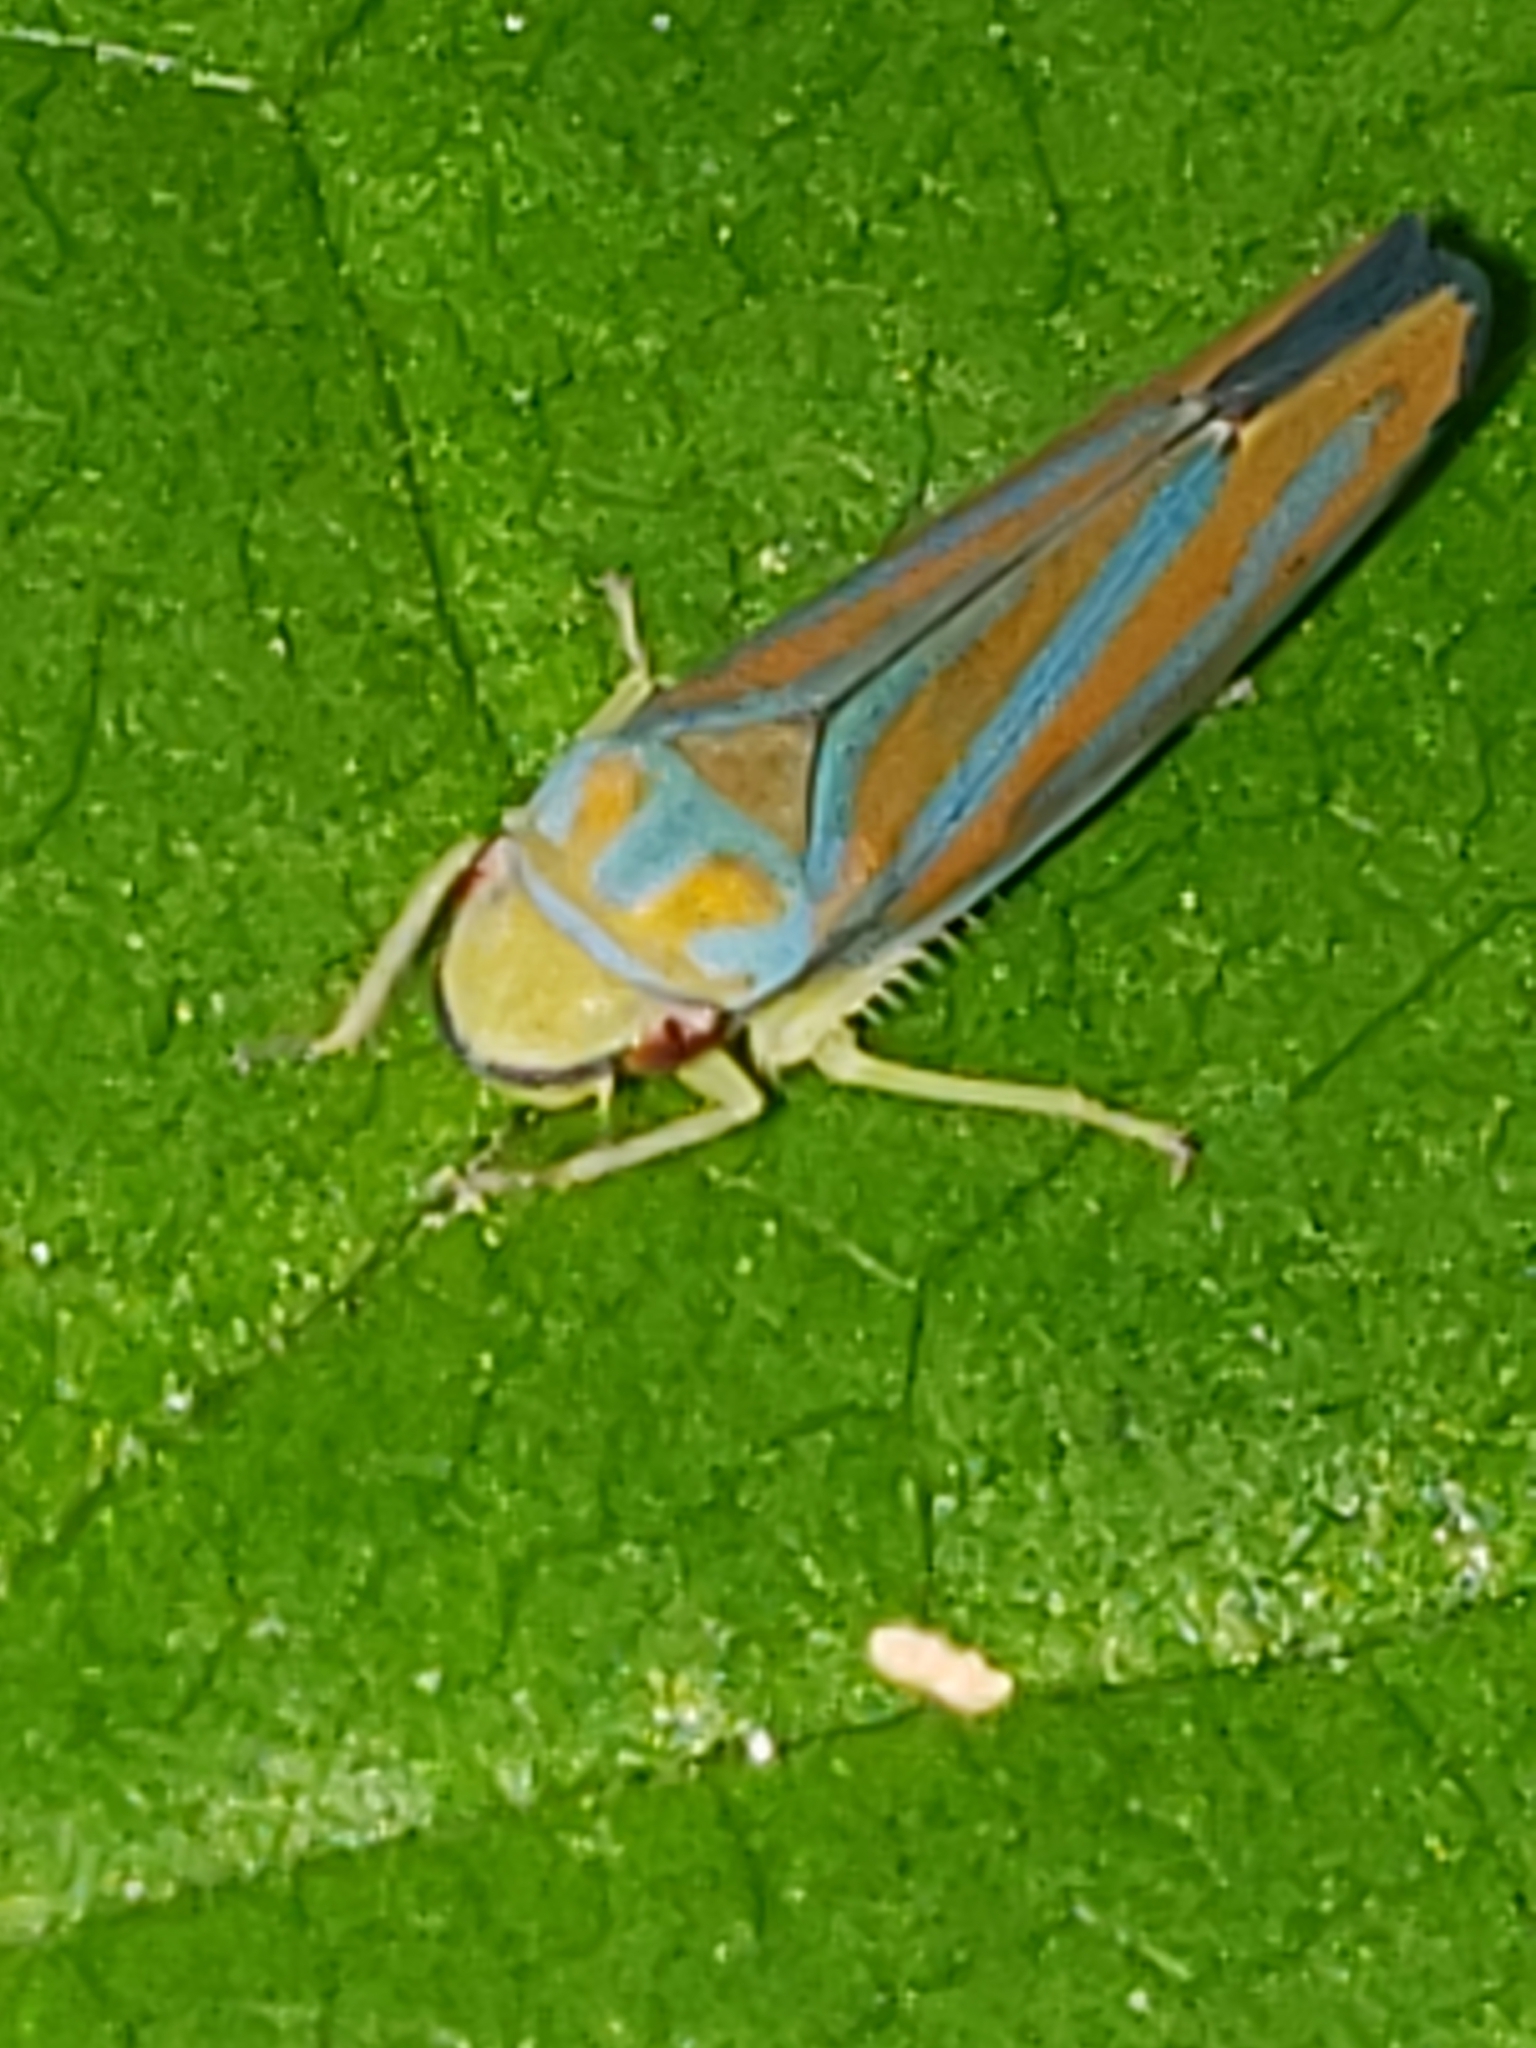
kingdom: Animalia
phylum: Arthropoda
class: Insecta
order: Hemiptera
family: Cicadellidae
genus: Graphocephala
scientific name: Graphocephala coccinea
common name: Candy-striped leafhopper
